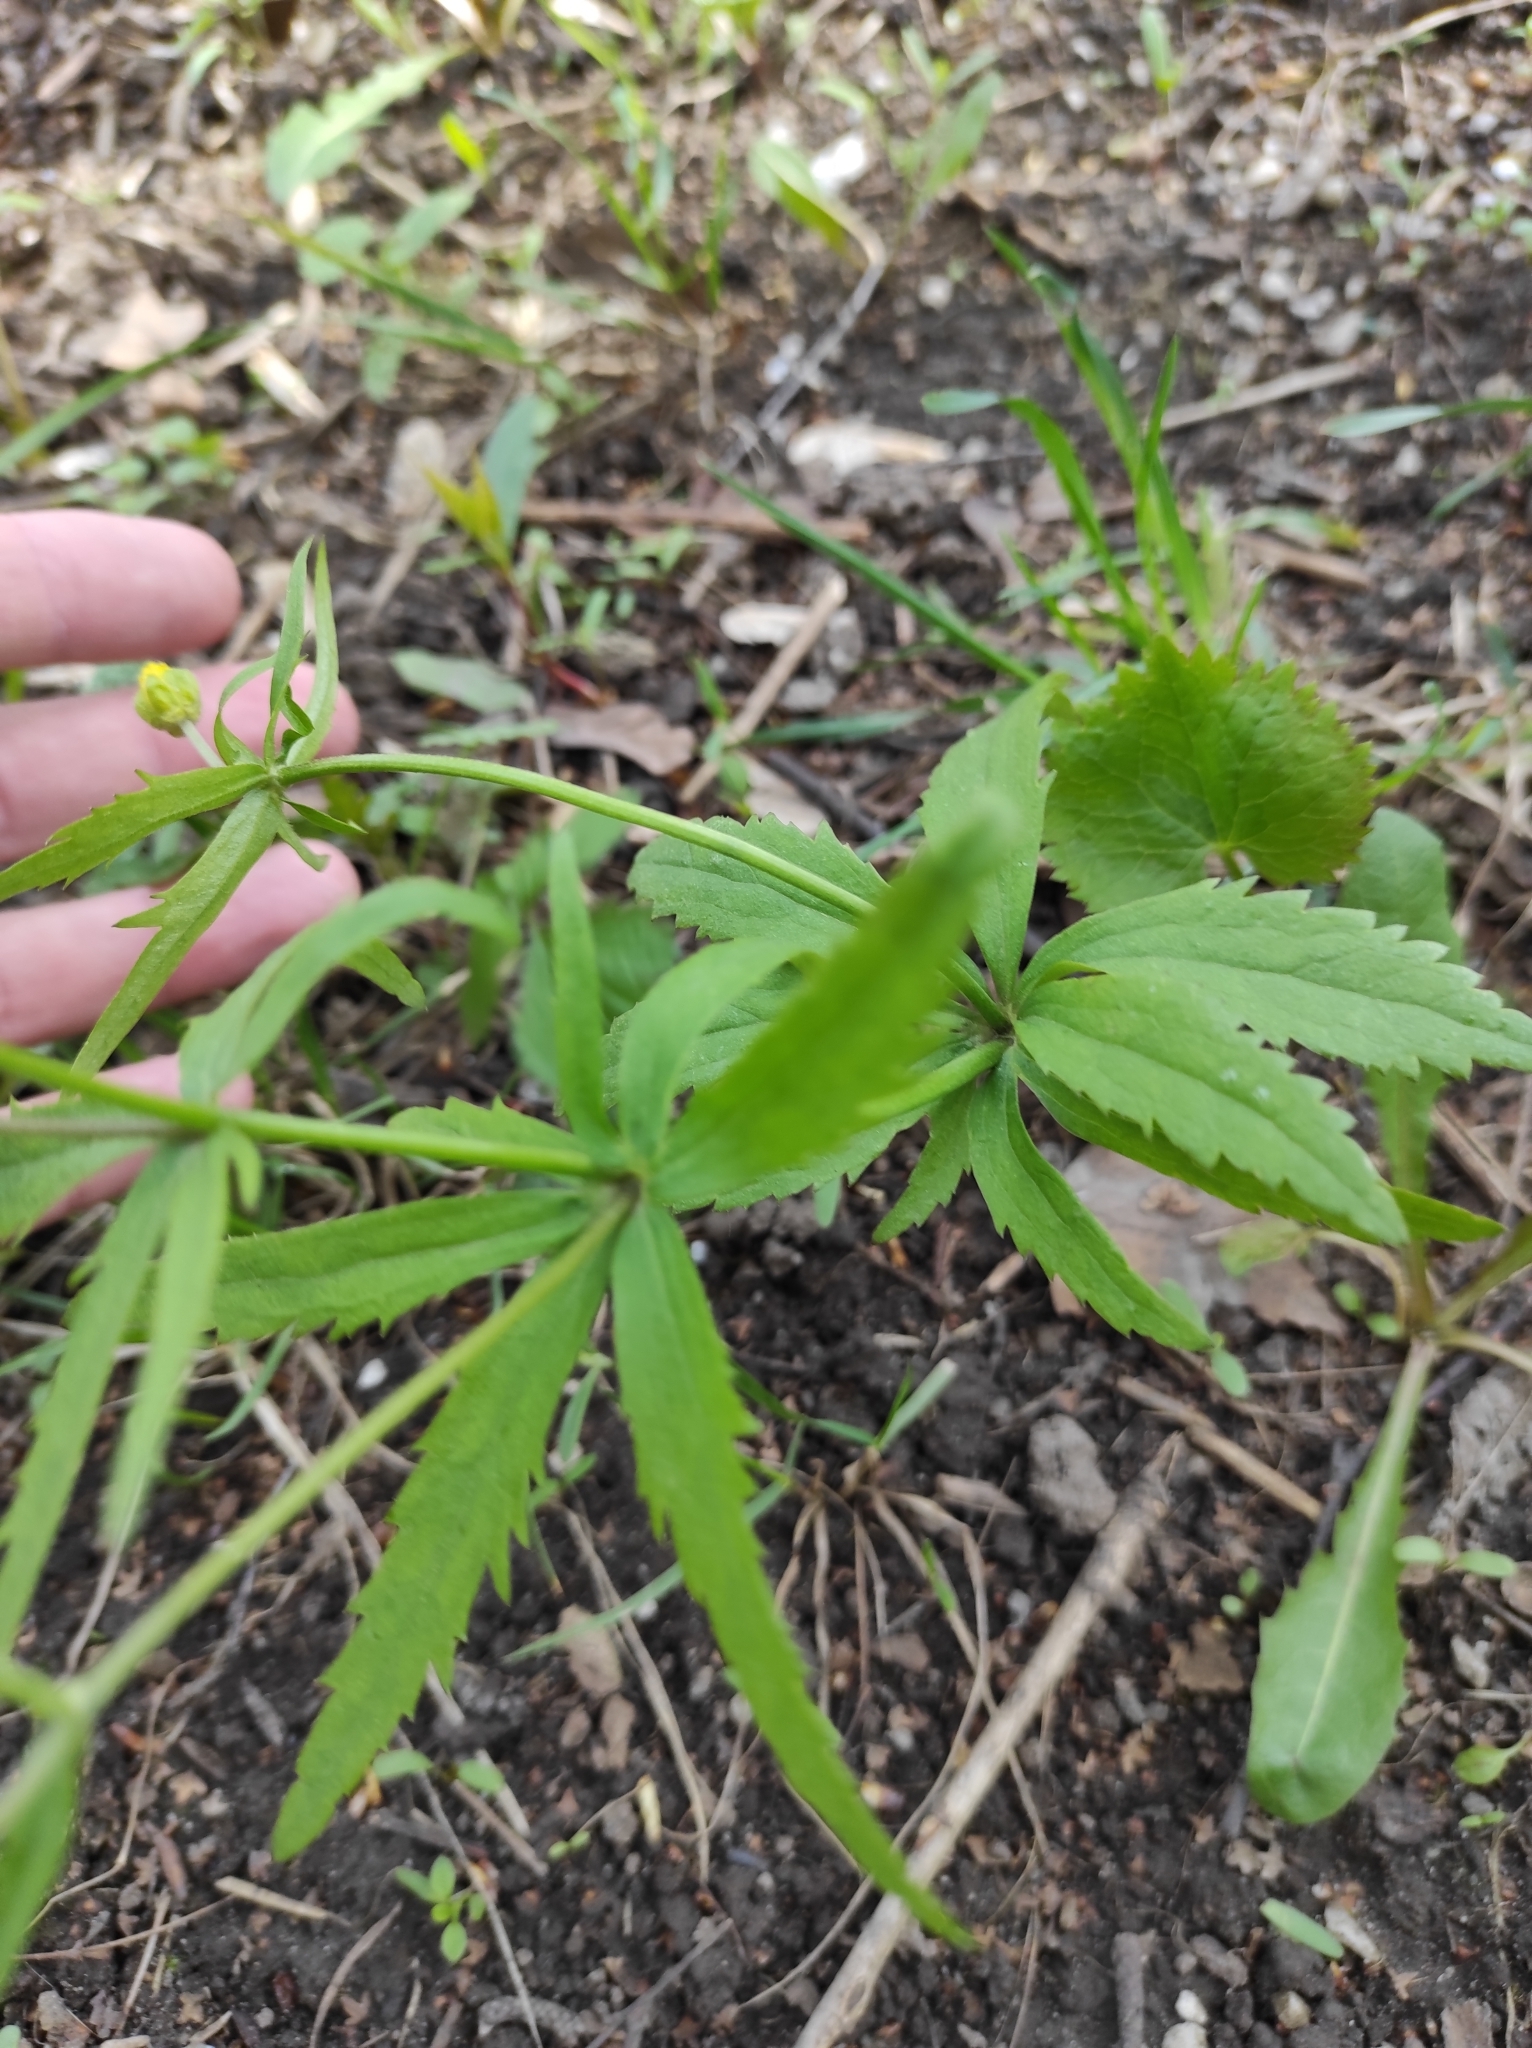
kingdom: Plantae
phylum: Tracheophyta
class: Magnoliopsida
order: Ranunculales
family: Ranunculaceae
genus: Ranunculus
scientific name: Ranunculus cassubicus
